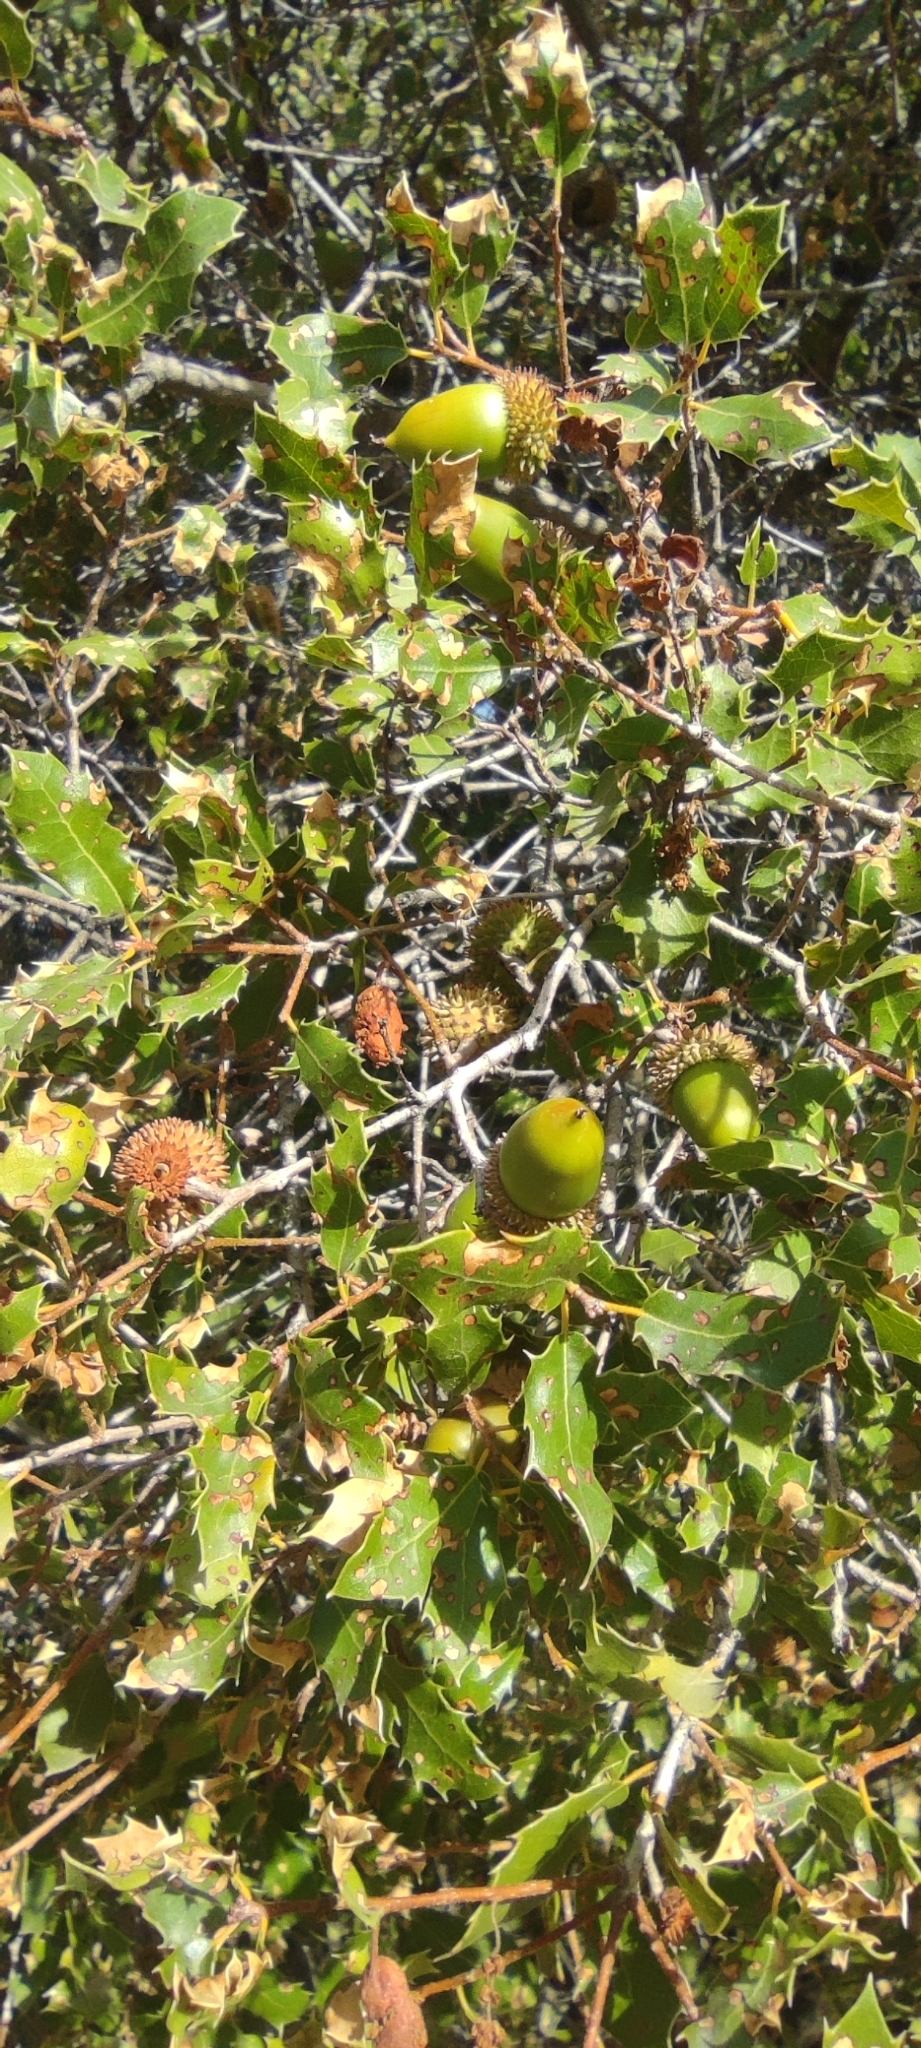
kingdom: Plantae
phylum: Tracheophyta
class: Magnoliopsida
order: Fagales
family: Fagaceae
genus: Quercus
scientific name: Quercus coccifera
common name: Kermes oak
